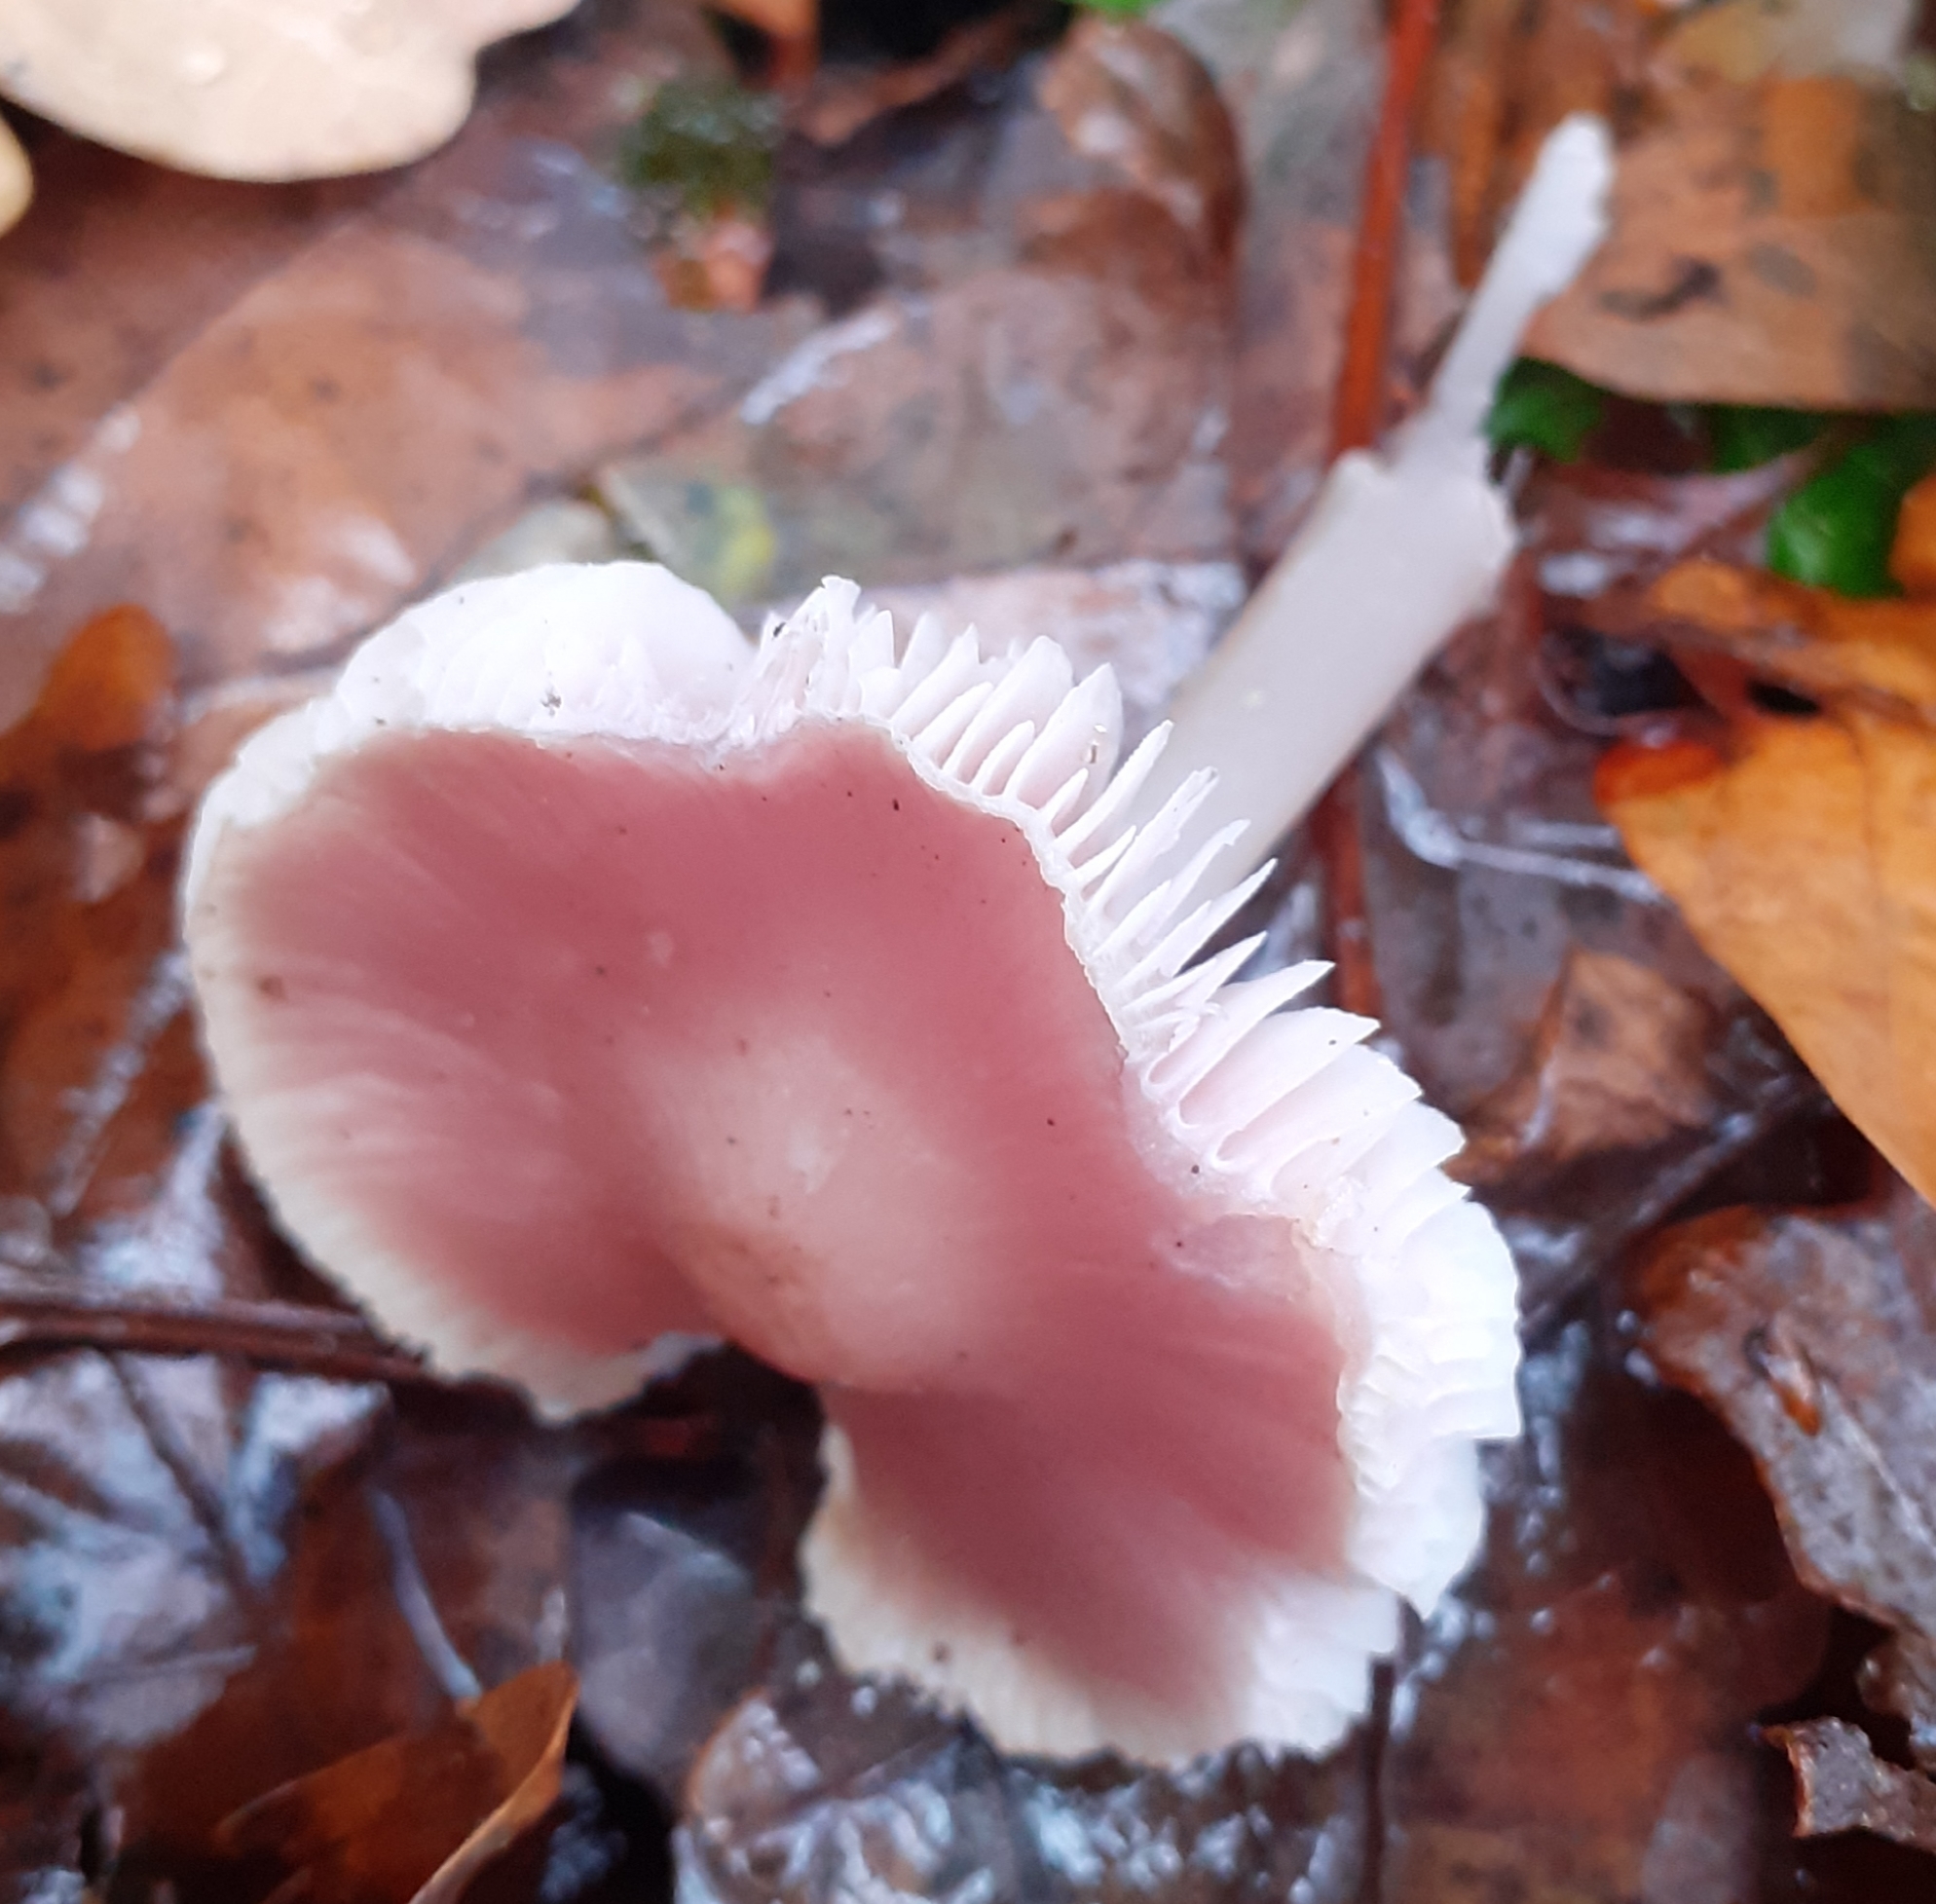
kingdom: Fungi
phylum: Basidiomycota
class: Agaricomycetes
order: Agaricales
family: Mycenaceae
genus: Mycena
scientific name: Mycena rosea
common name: Rosy bonnet
